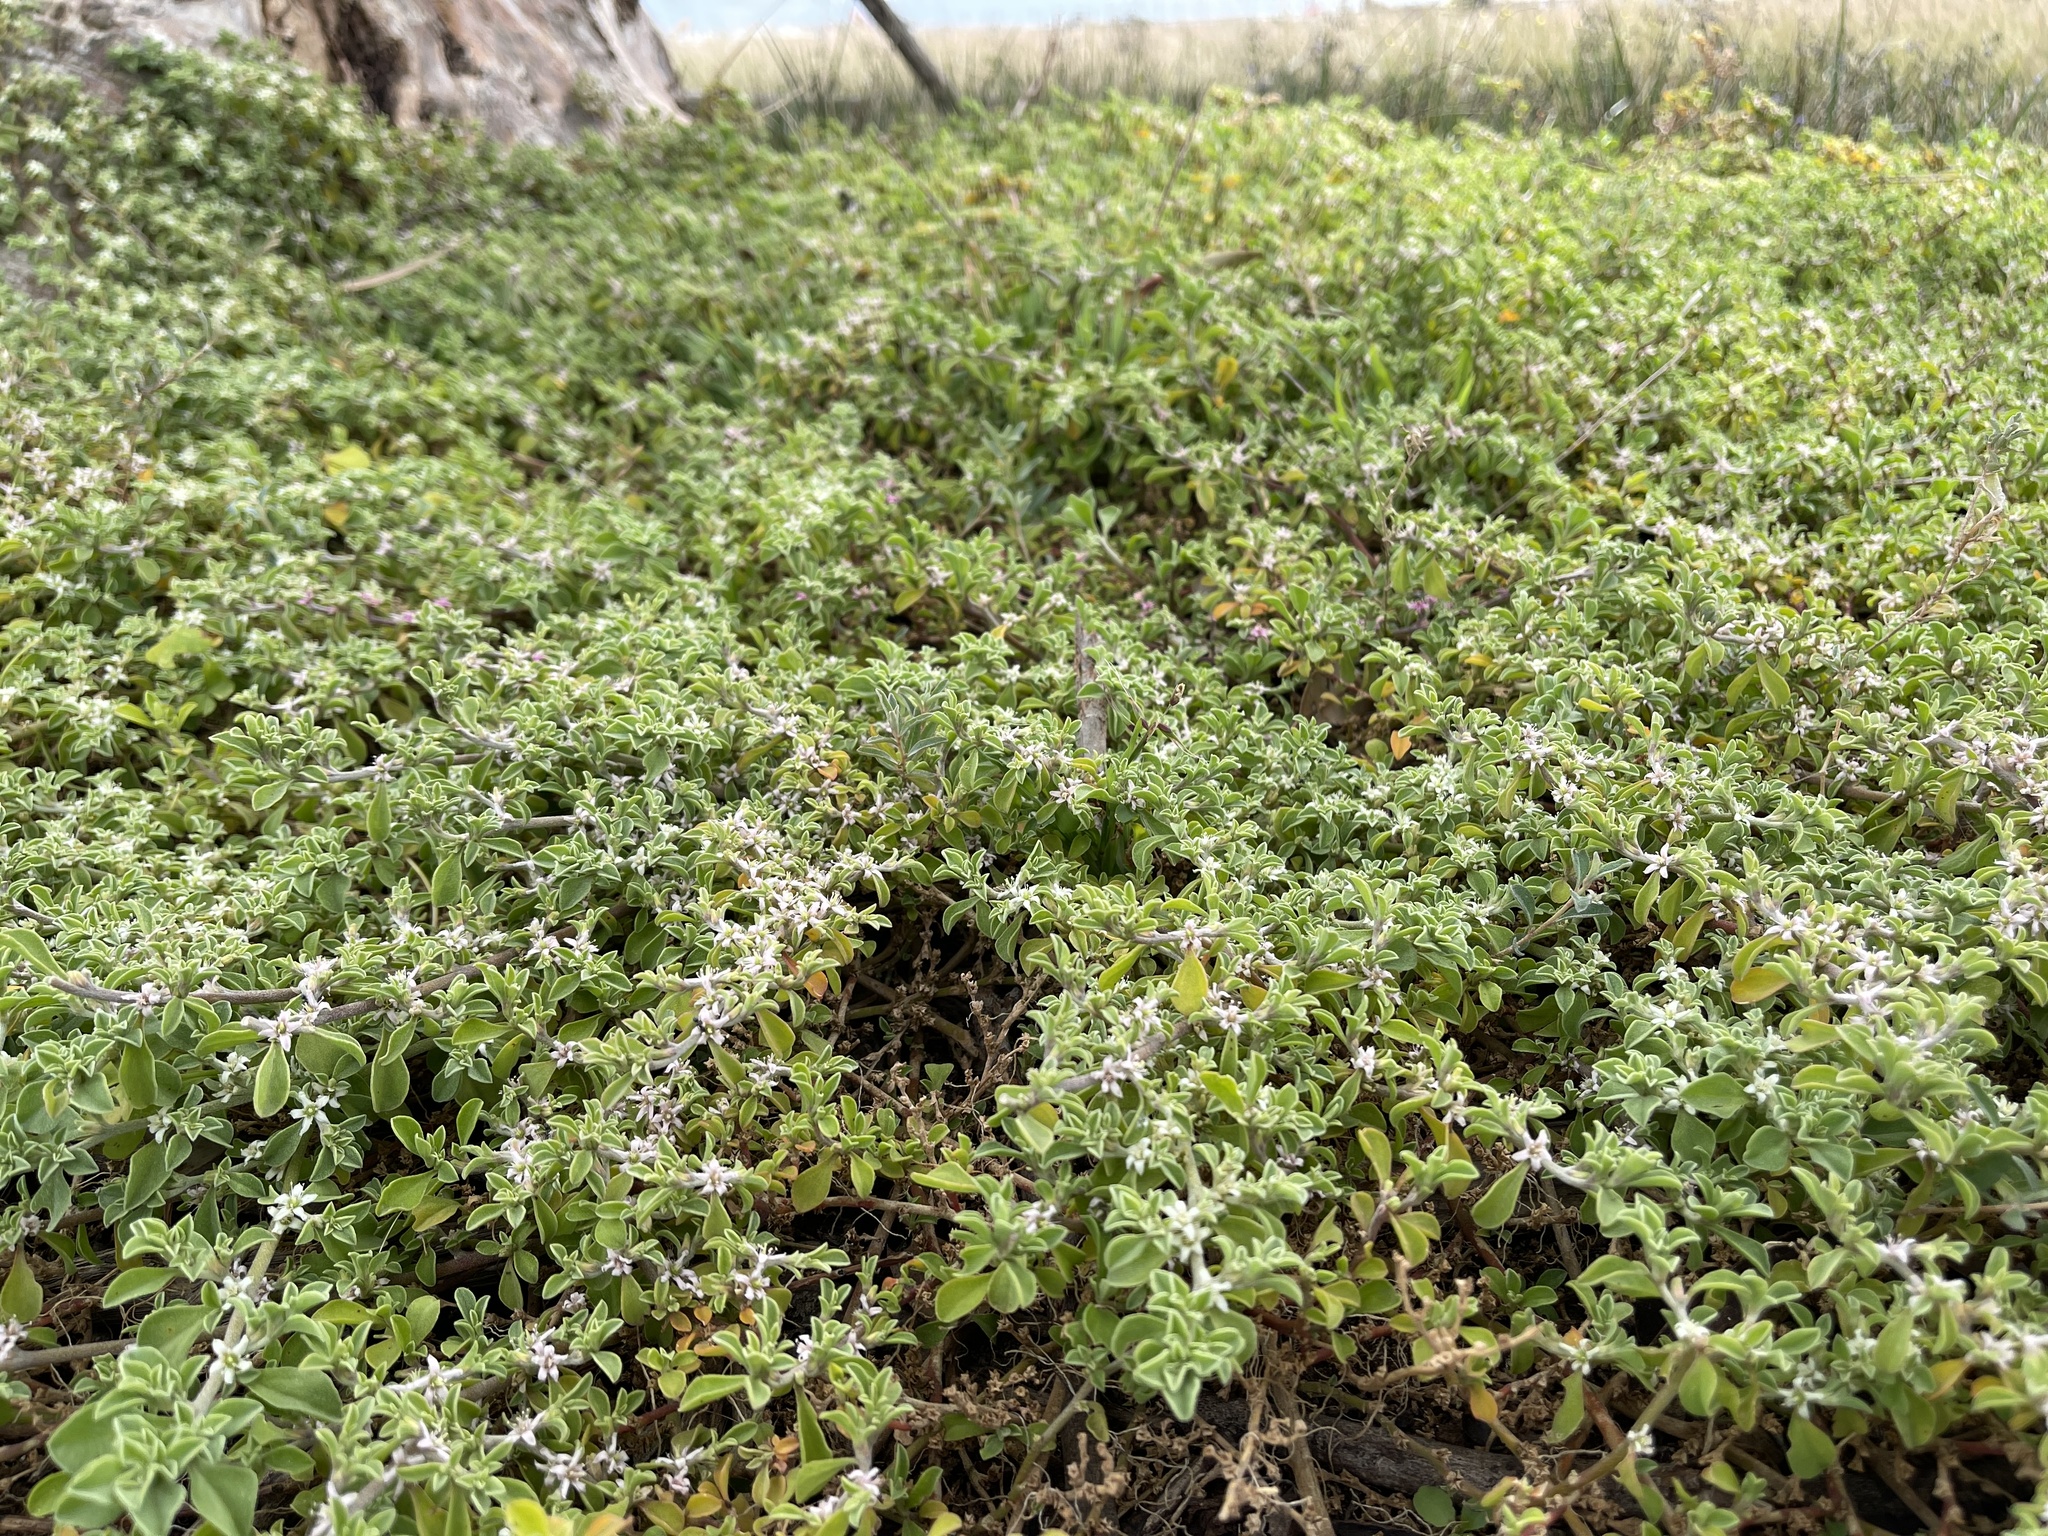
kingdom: Plantae
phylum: Tracheophyta
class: Magnoliopsida
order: Caryophyllales
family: Aizoaceae
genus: Aizoon
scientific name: Aizoon pubescens
